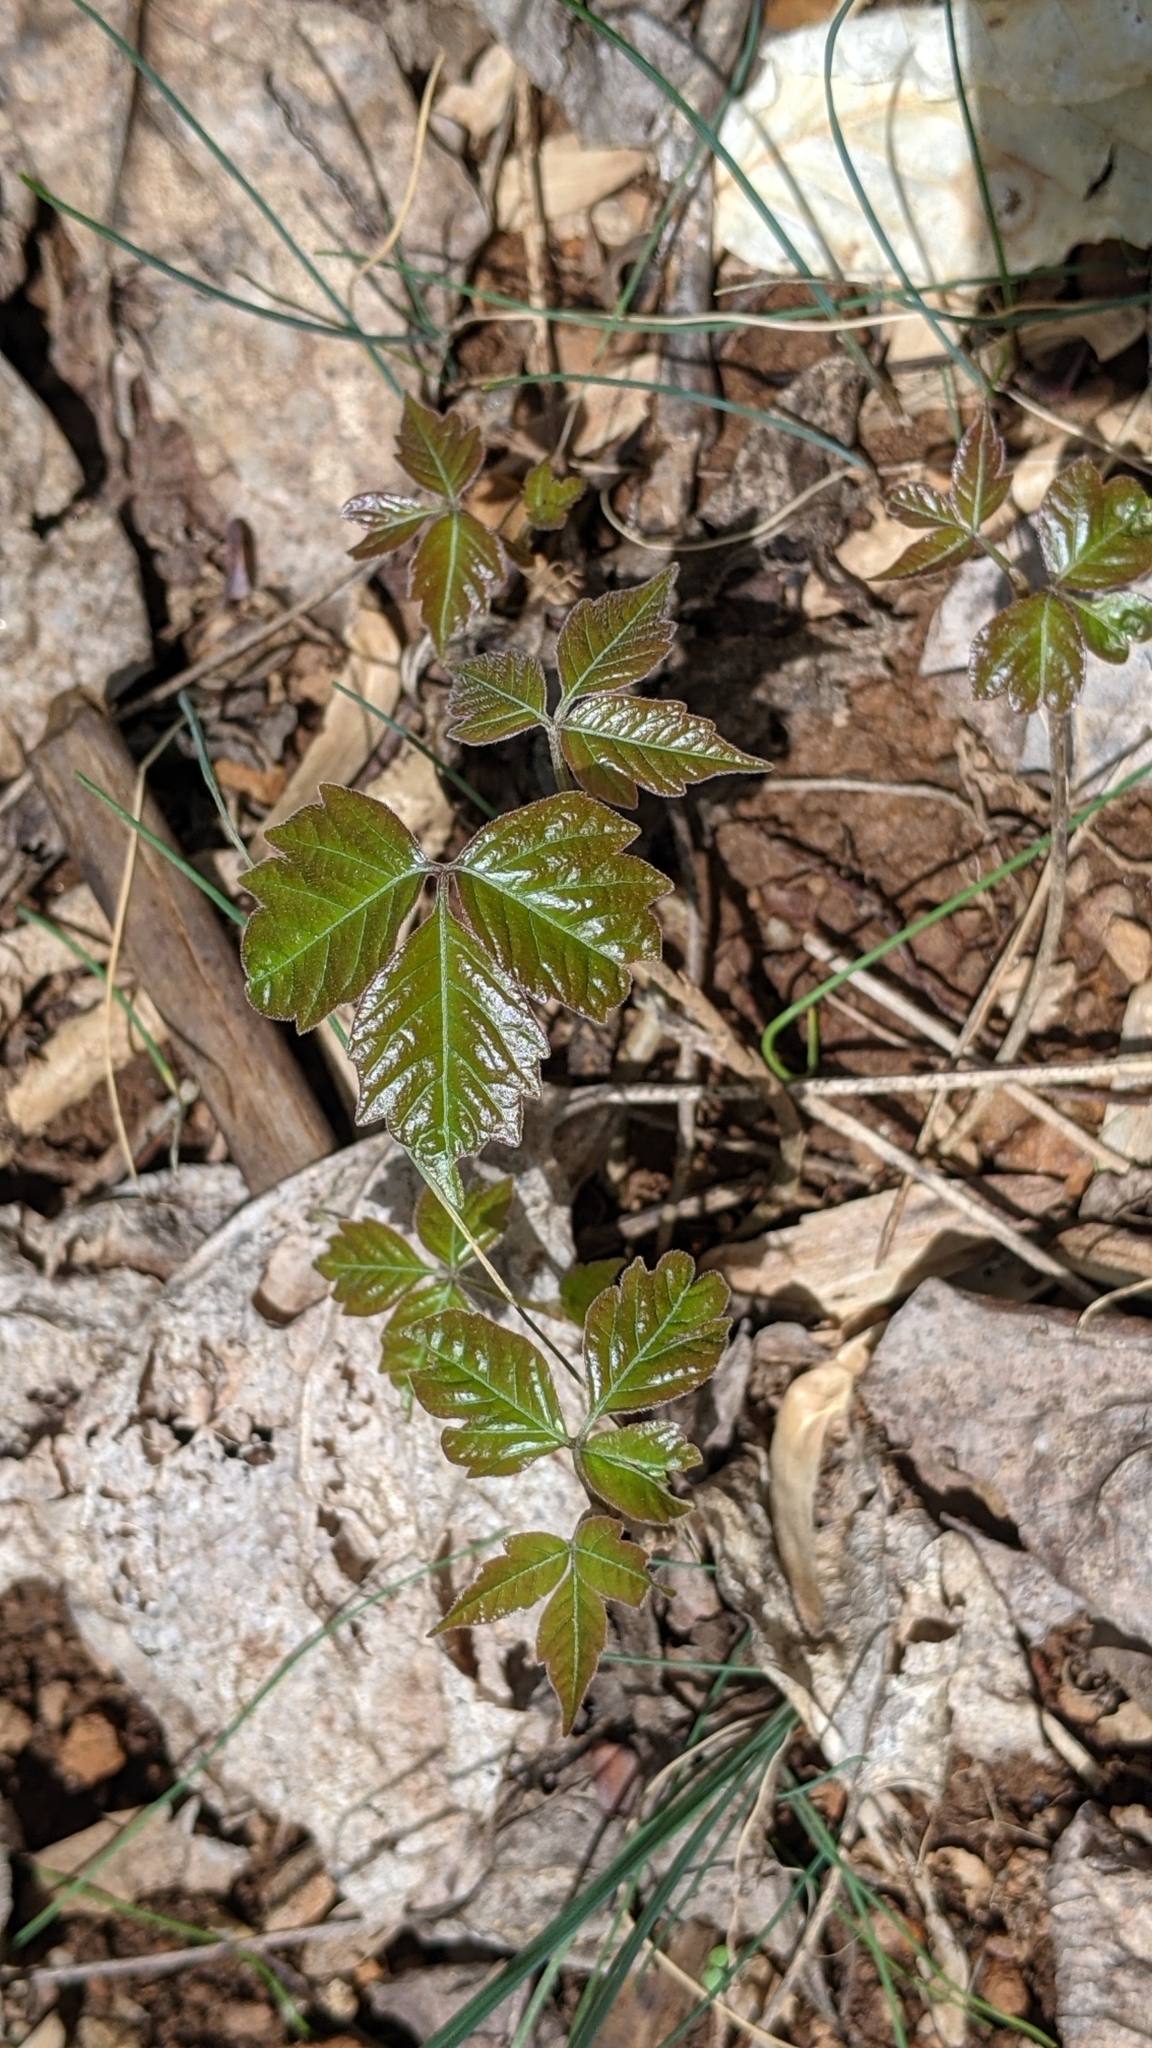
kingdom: Plantae
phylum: Tracheophyta
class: Magnoliopsida
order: Sapindales
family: Anacardiaceae
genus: Toxicodendron
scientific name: Toxicodendron radicans
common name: Poison ivy
